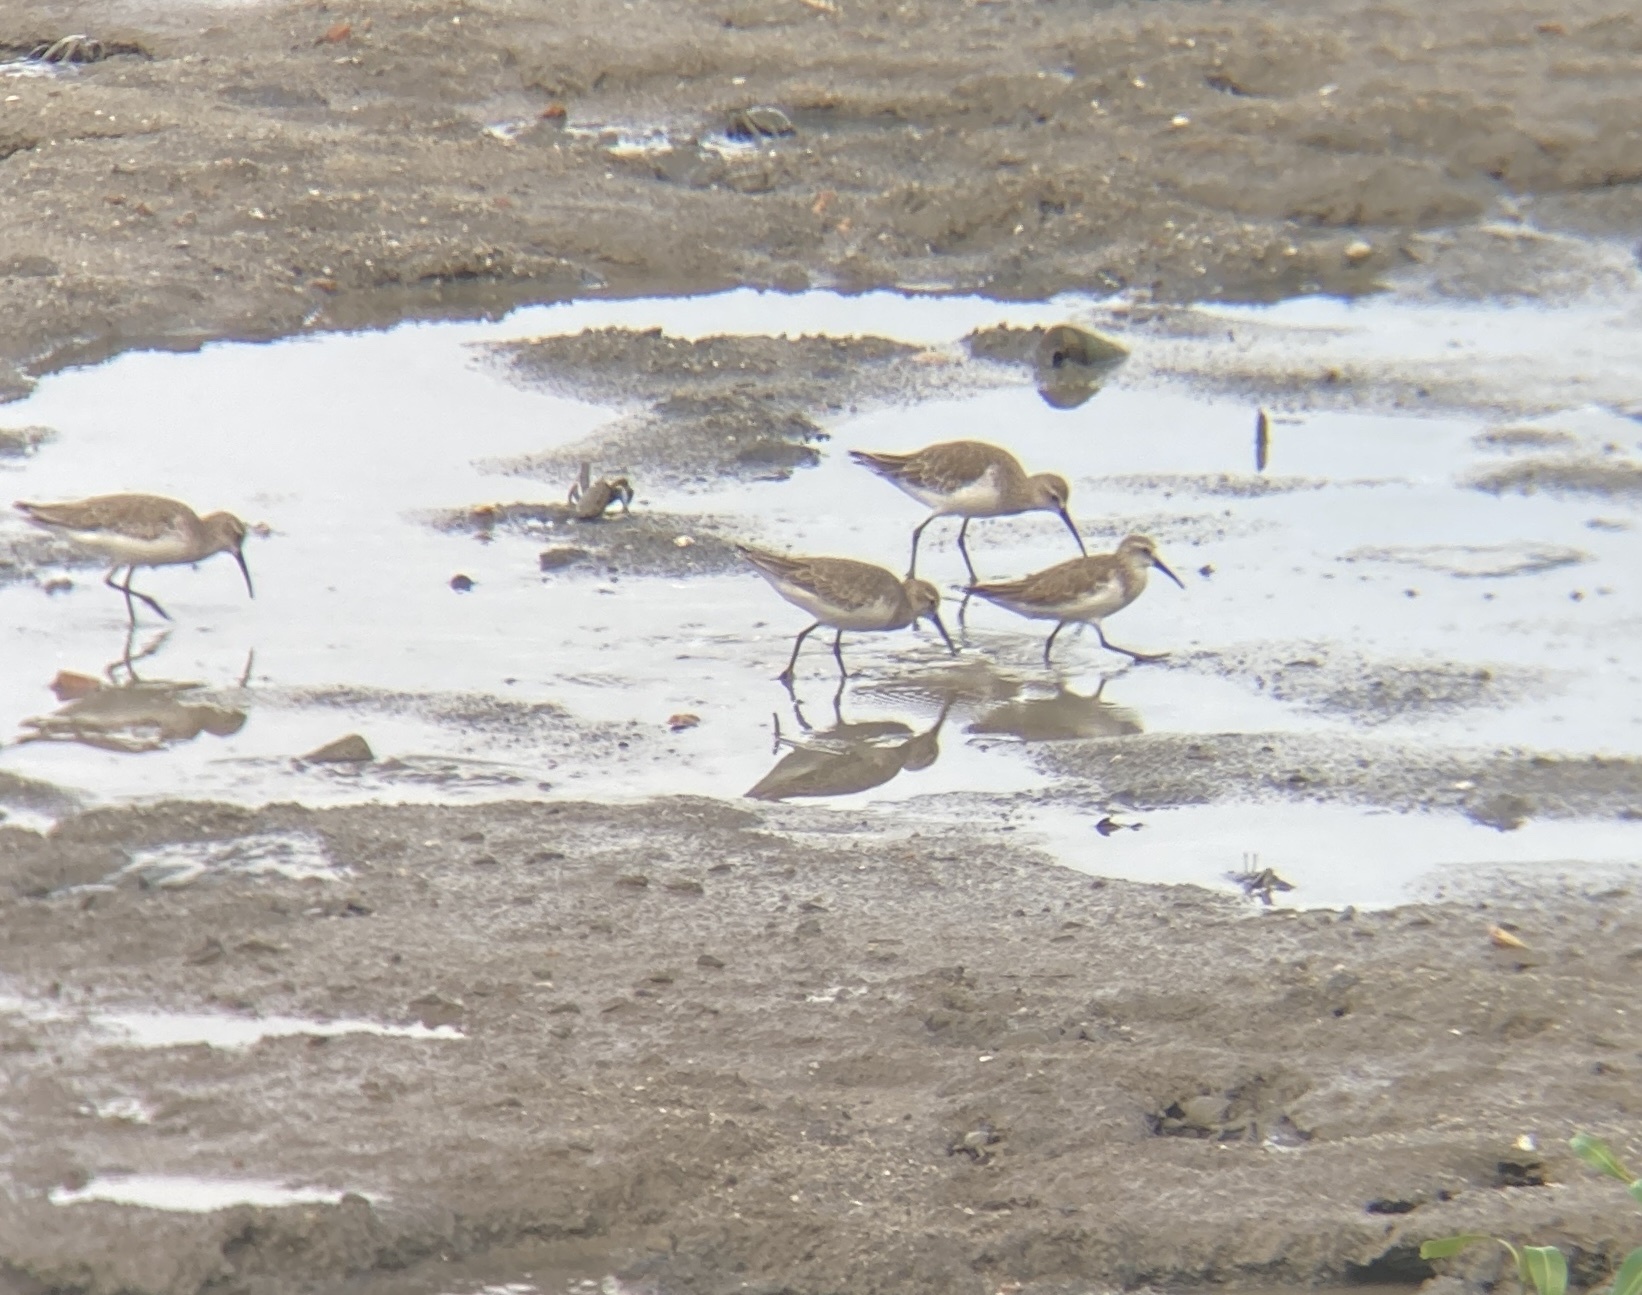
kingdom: Animalia
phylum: Chordata
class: Aves
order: Charadriiformes
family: Scolopacidae
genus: Calidris
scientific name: Calidris ferruginea
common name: Curlew sandpiper
